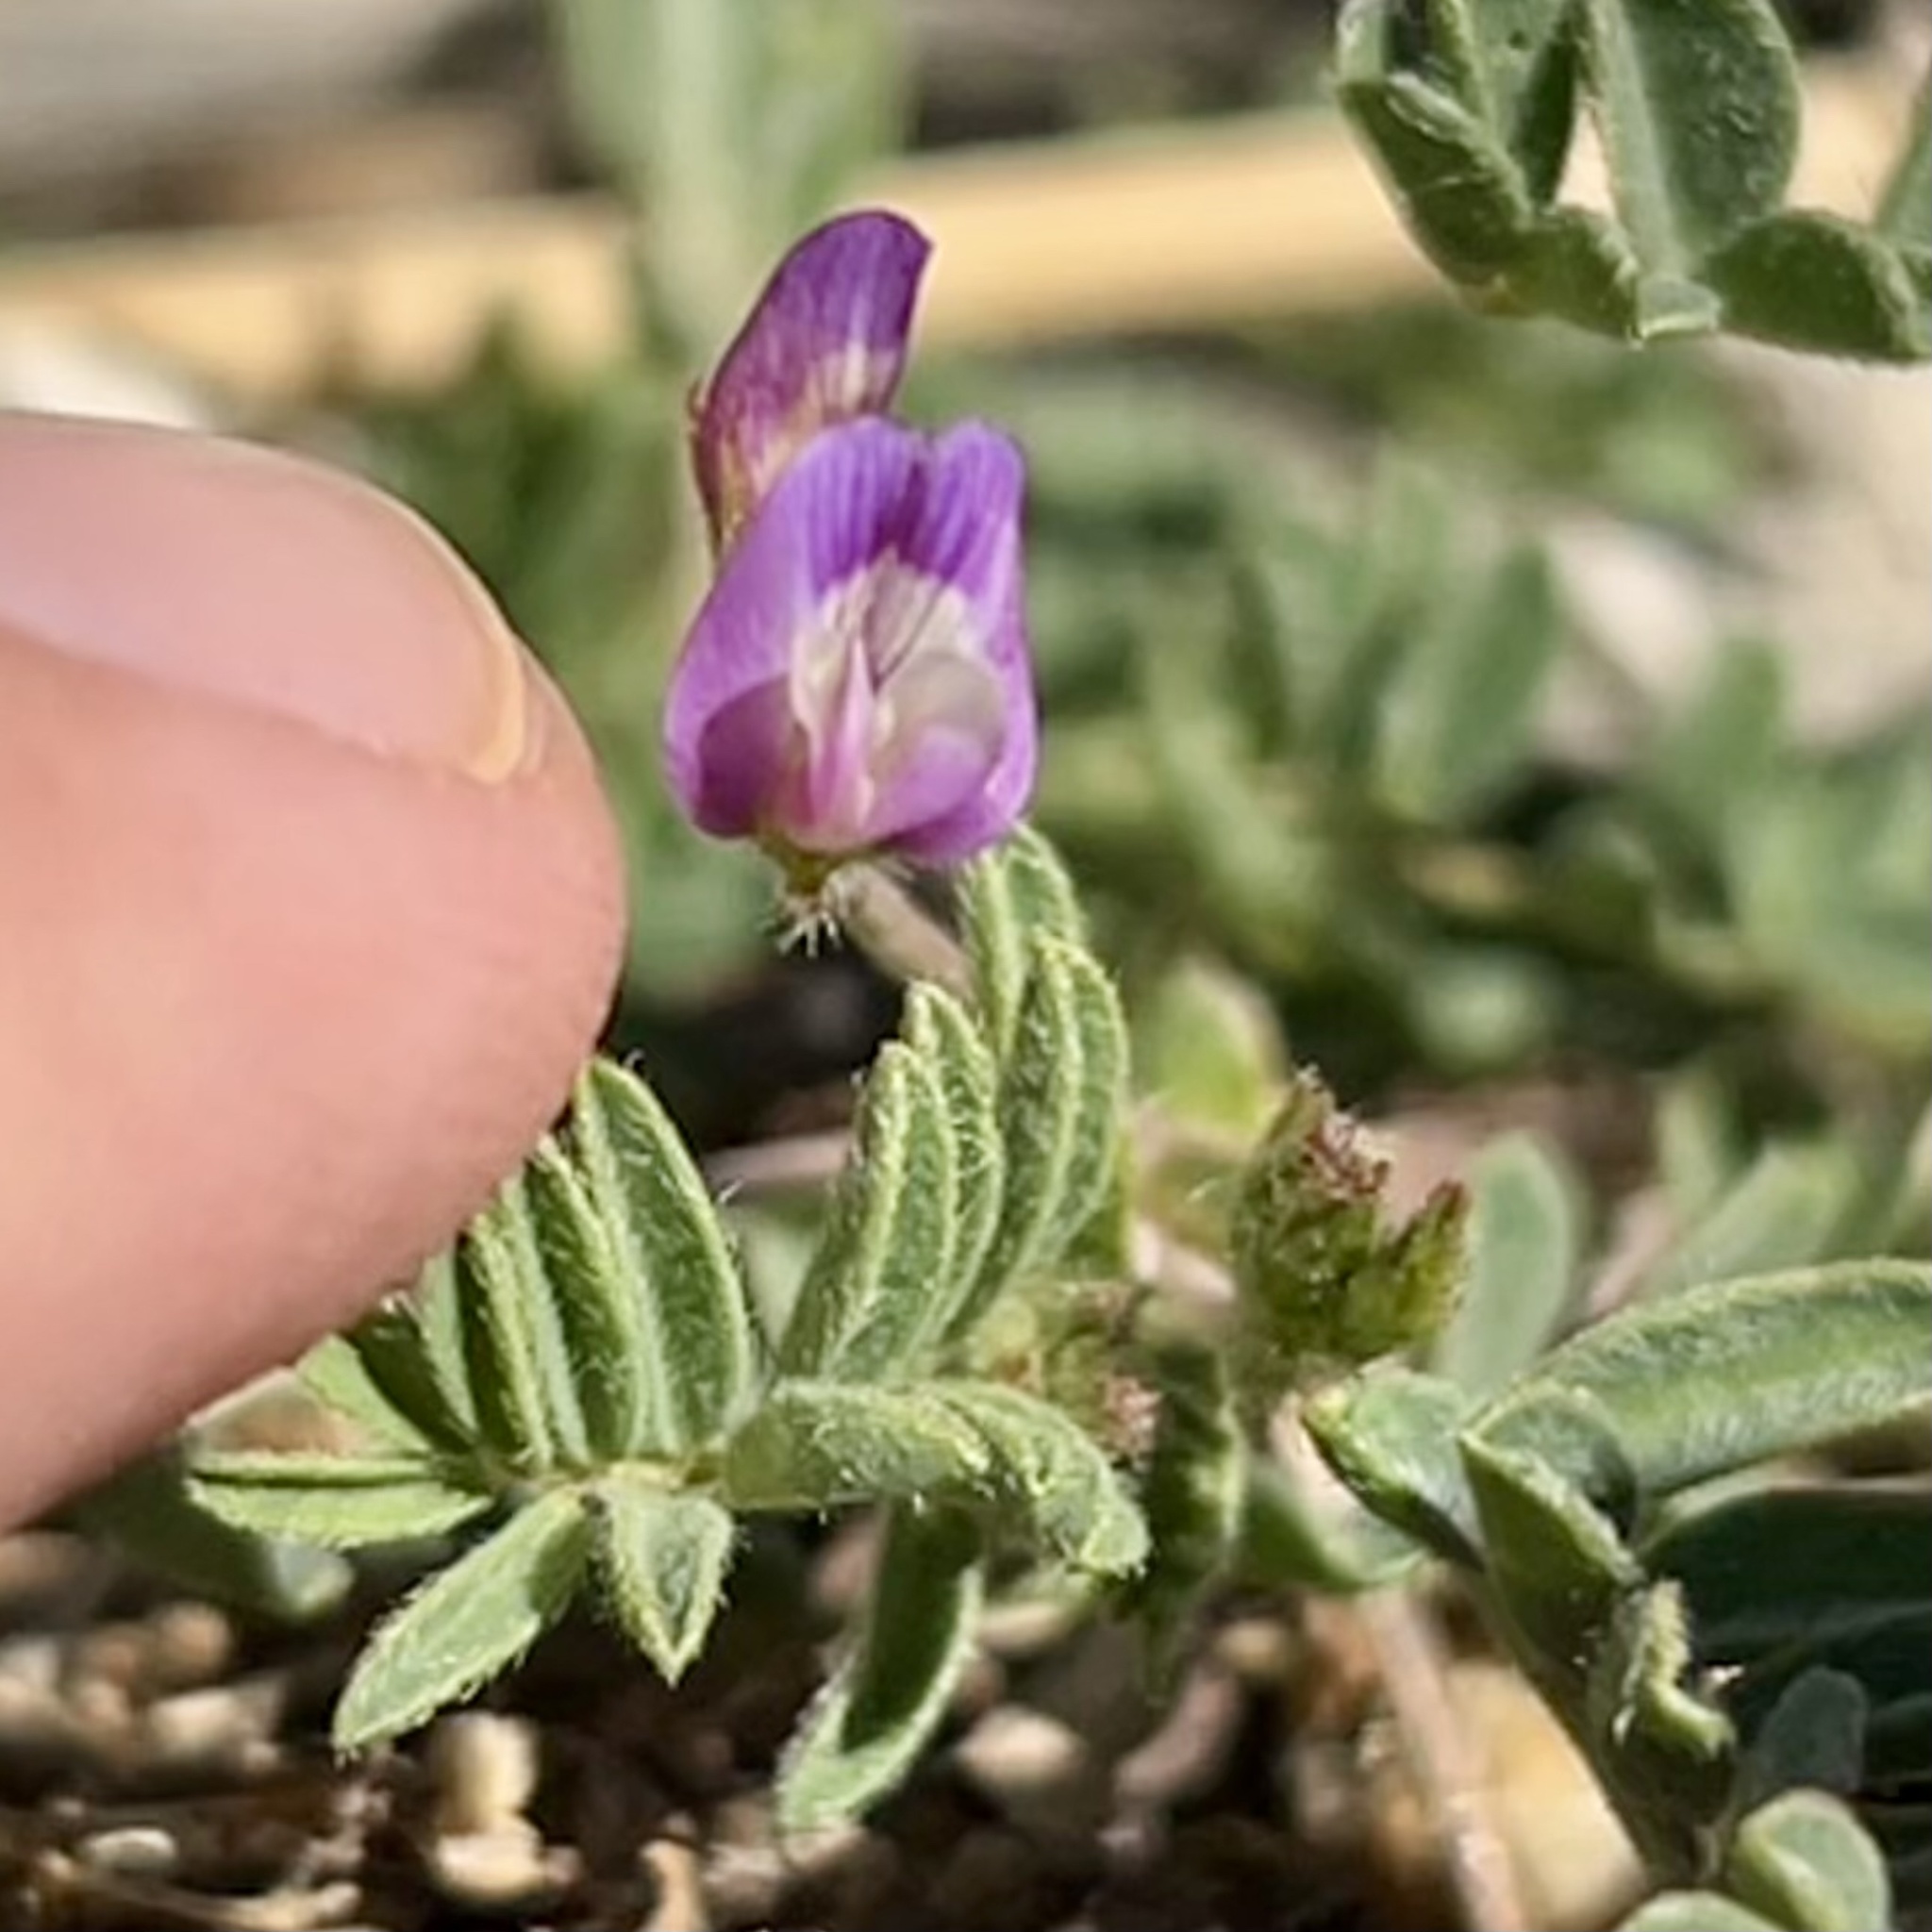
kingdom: Plantae
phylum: Tracheophyta
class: Magnoliopsida
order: Fabales
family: Fabaceae
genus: Astragalus
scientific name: Astragalus nuttallianus
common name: Smallflowered milkvetch
